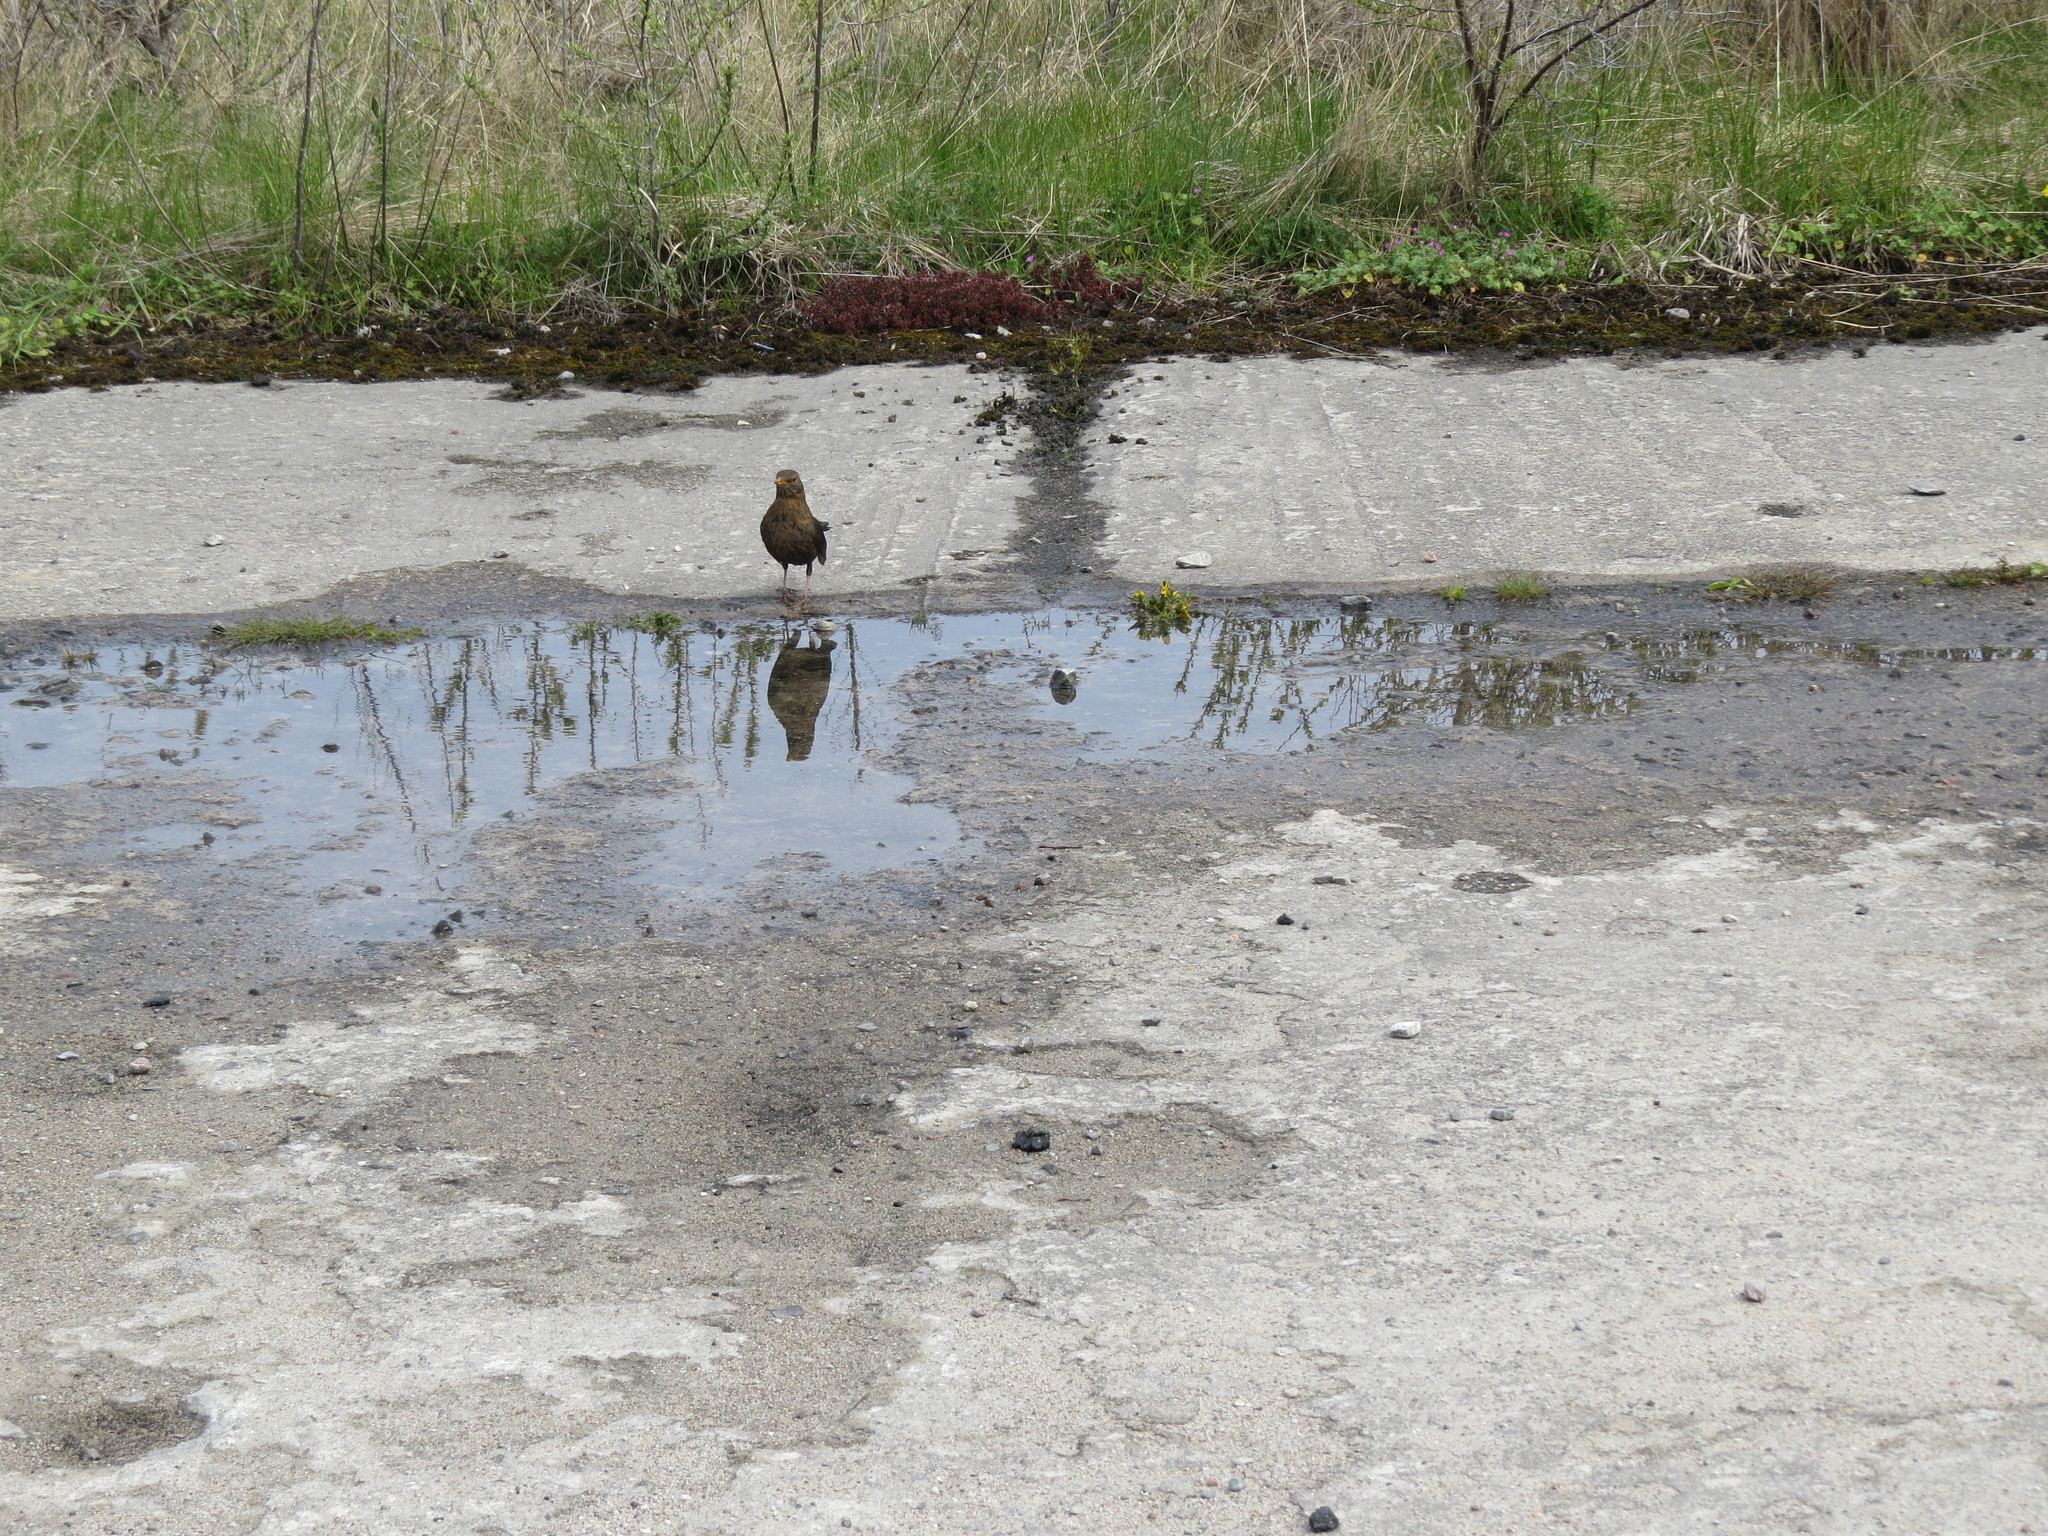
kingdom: Animalia
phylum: Chordata
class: Aves
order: Passeriformes
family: Turdidae
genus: Turdus
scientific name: Turdus merula
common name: Common blackbird
